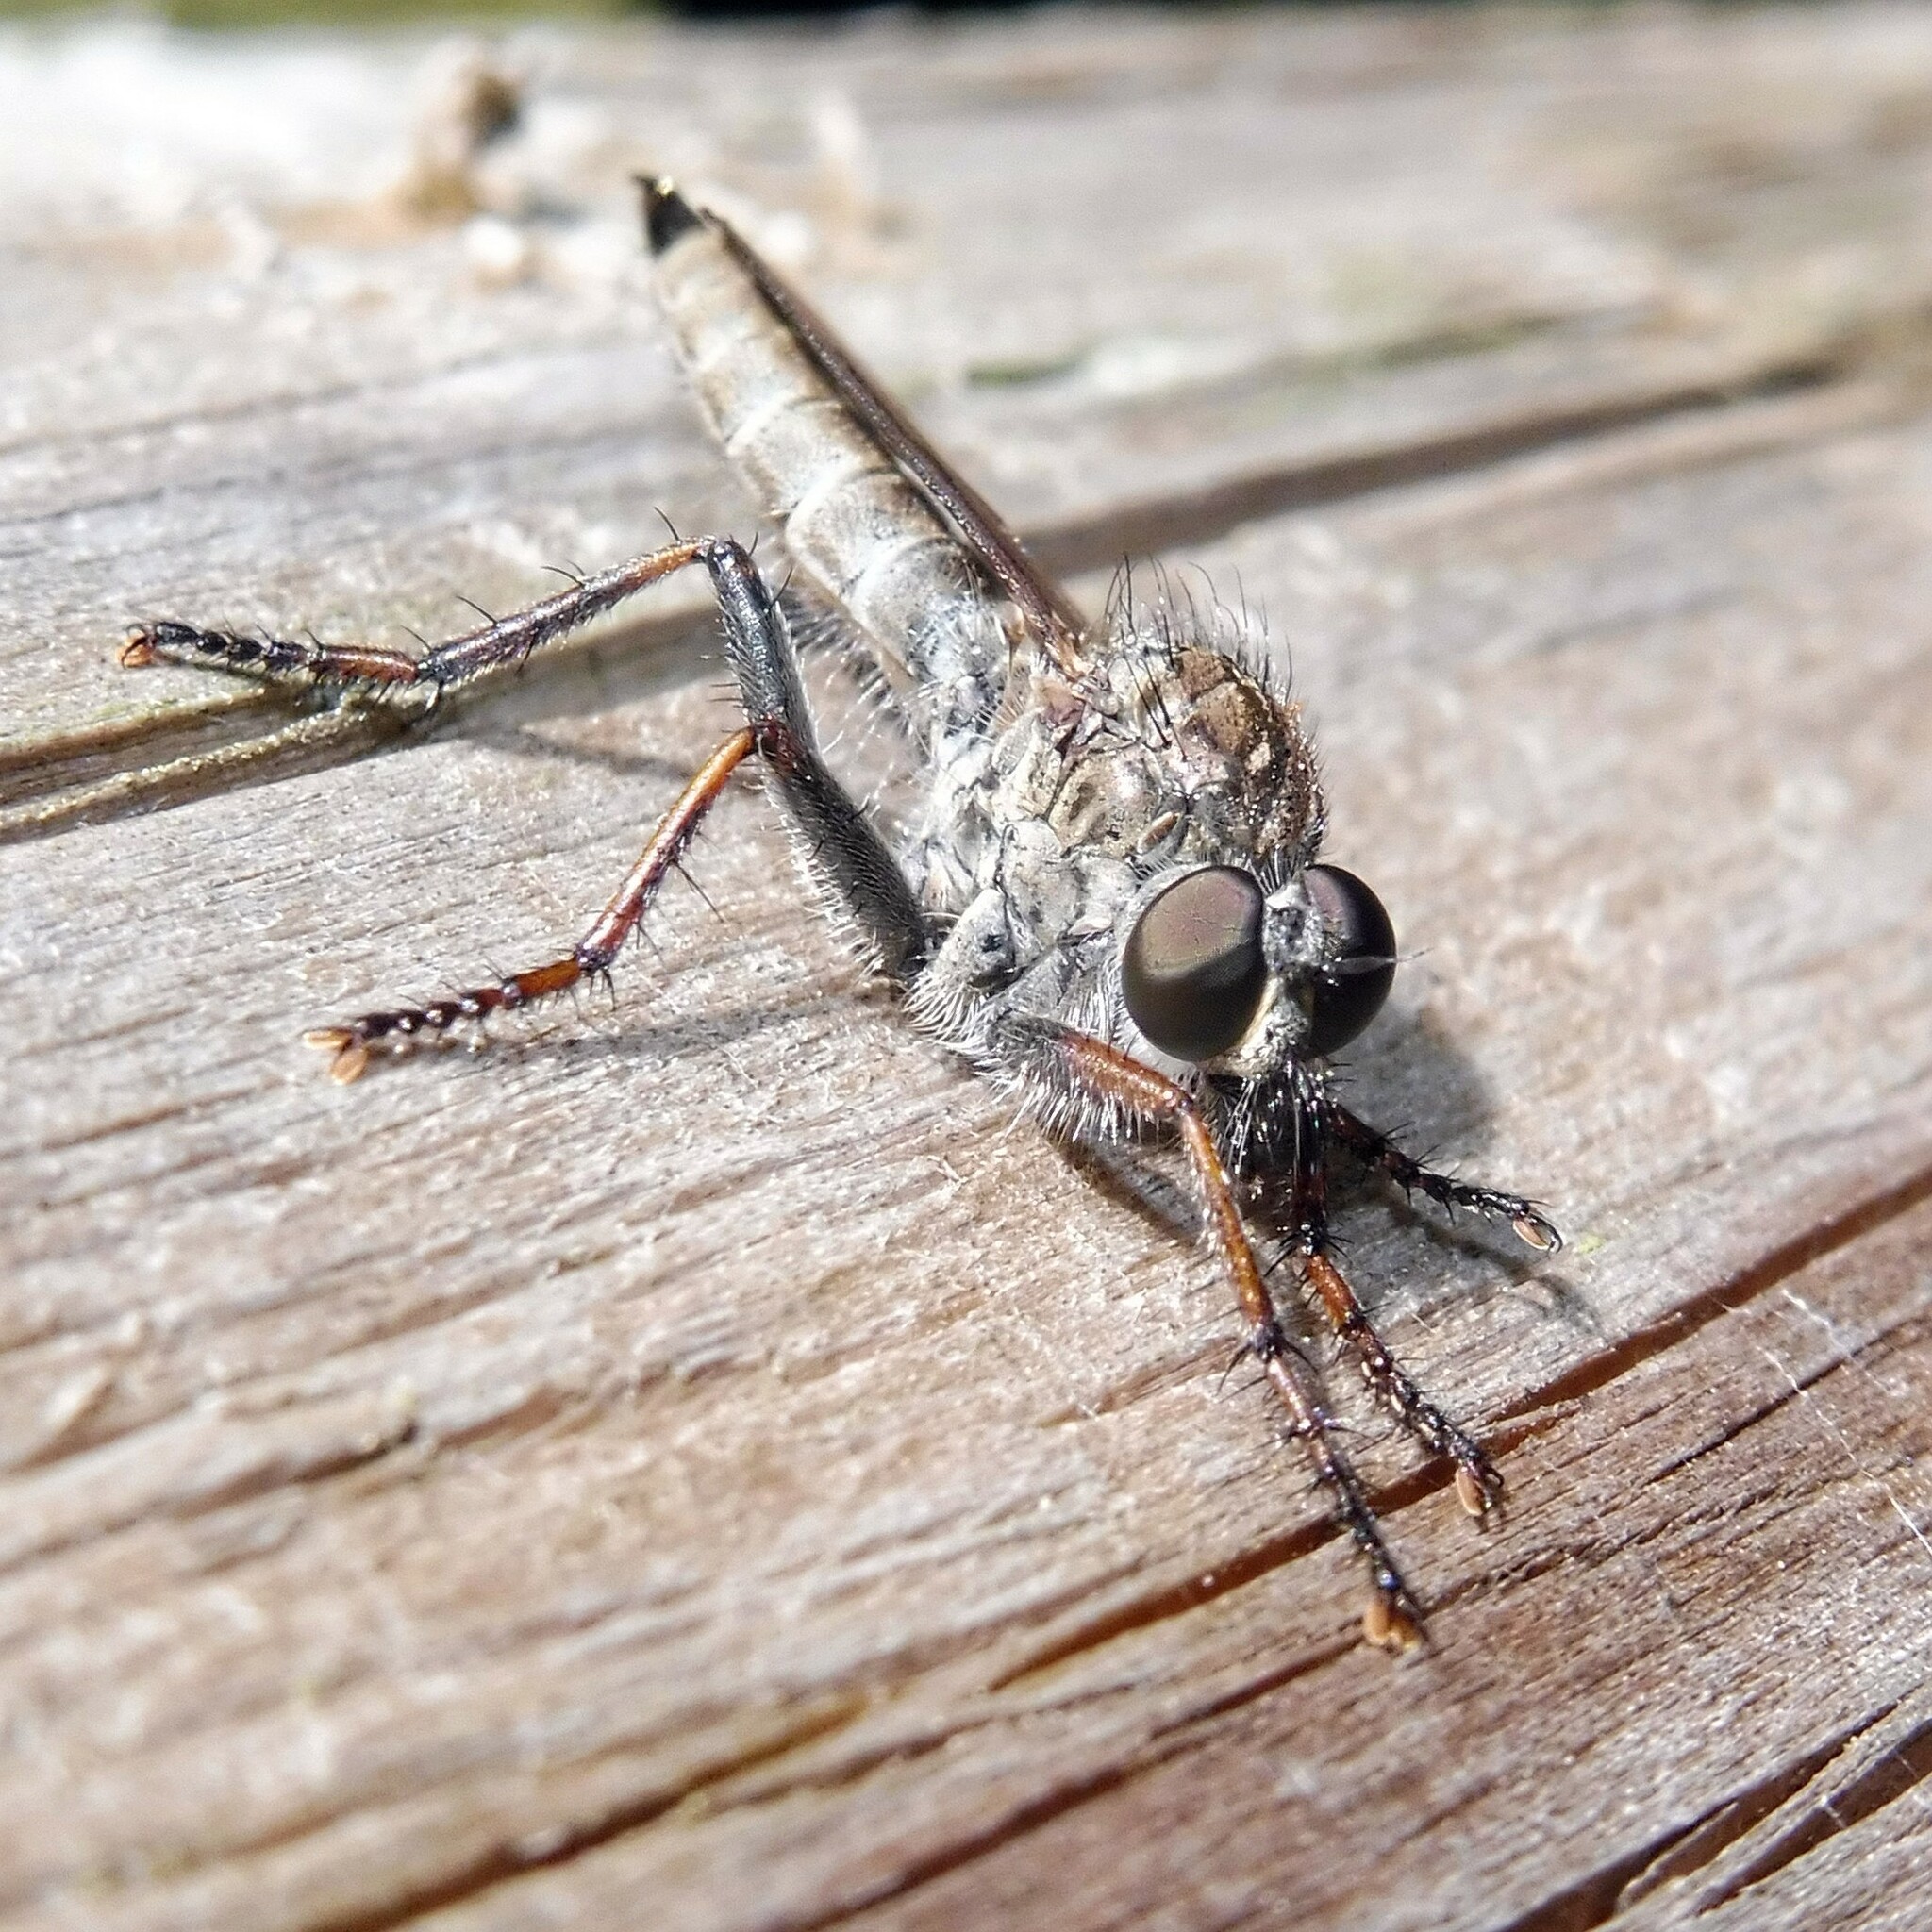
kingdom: Animalia
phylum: Arthropoda
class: Insecta
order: Diptera
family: Asilidae
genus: Machimus
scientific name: Machimus atricapillus
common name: Kite-tailed robberfly
